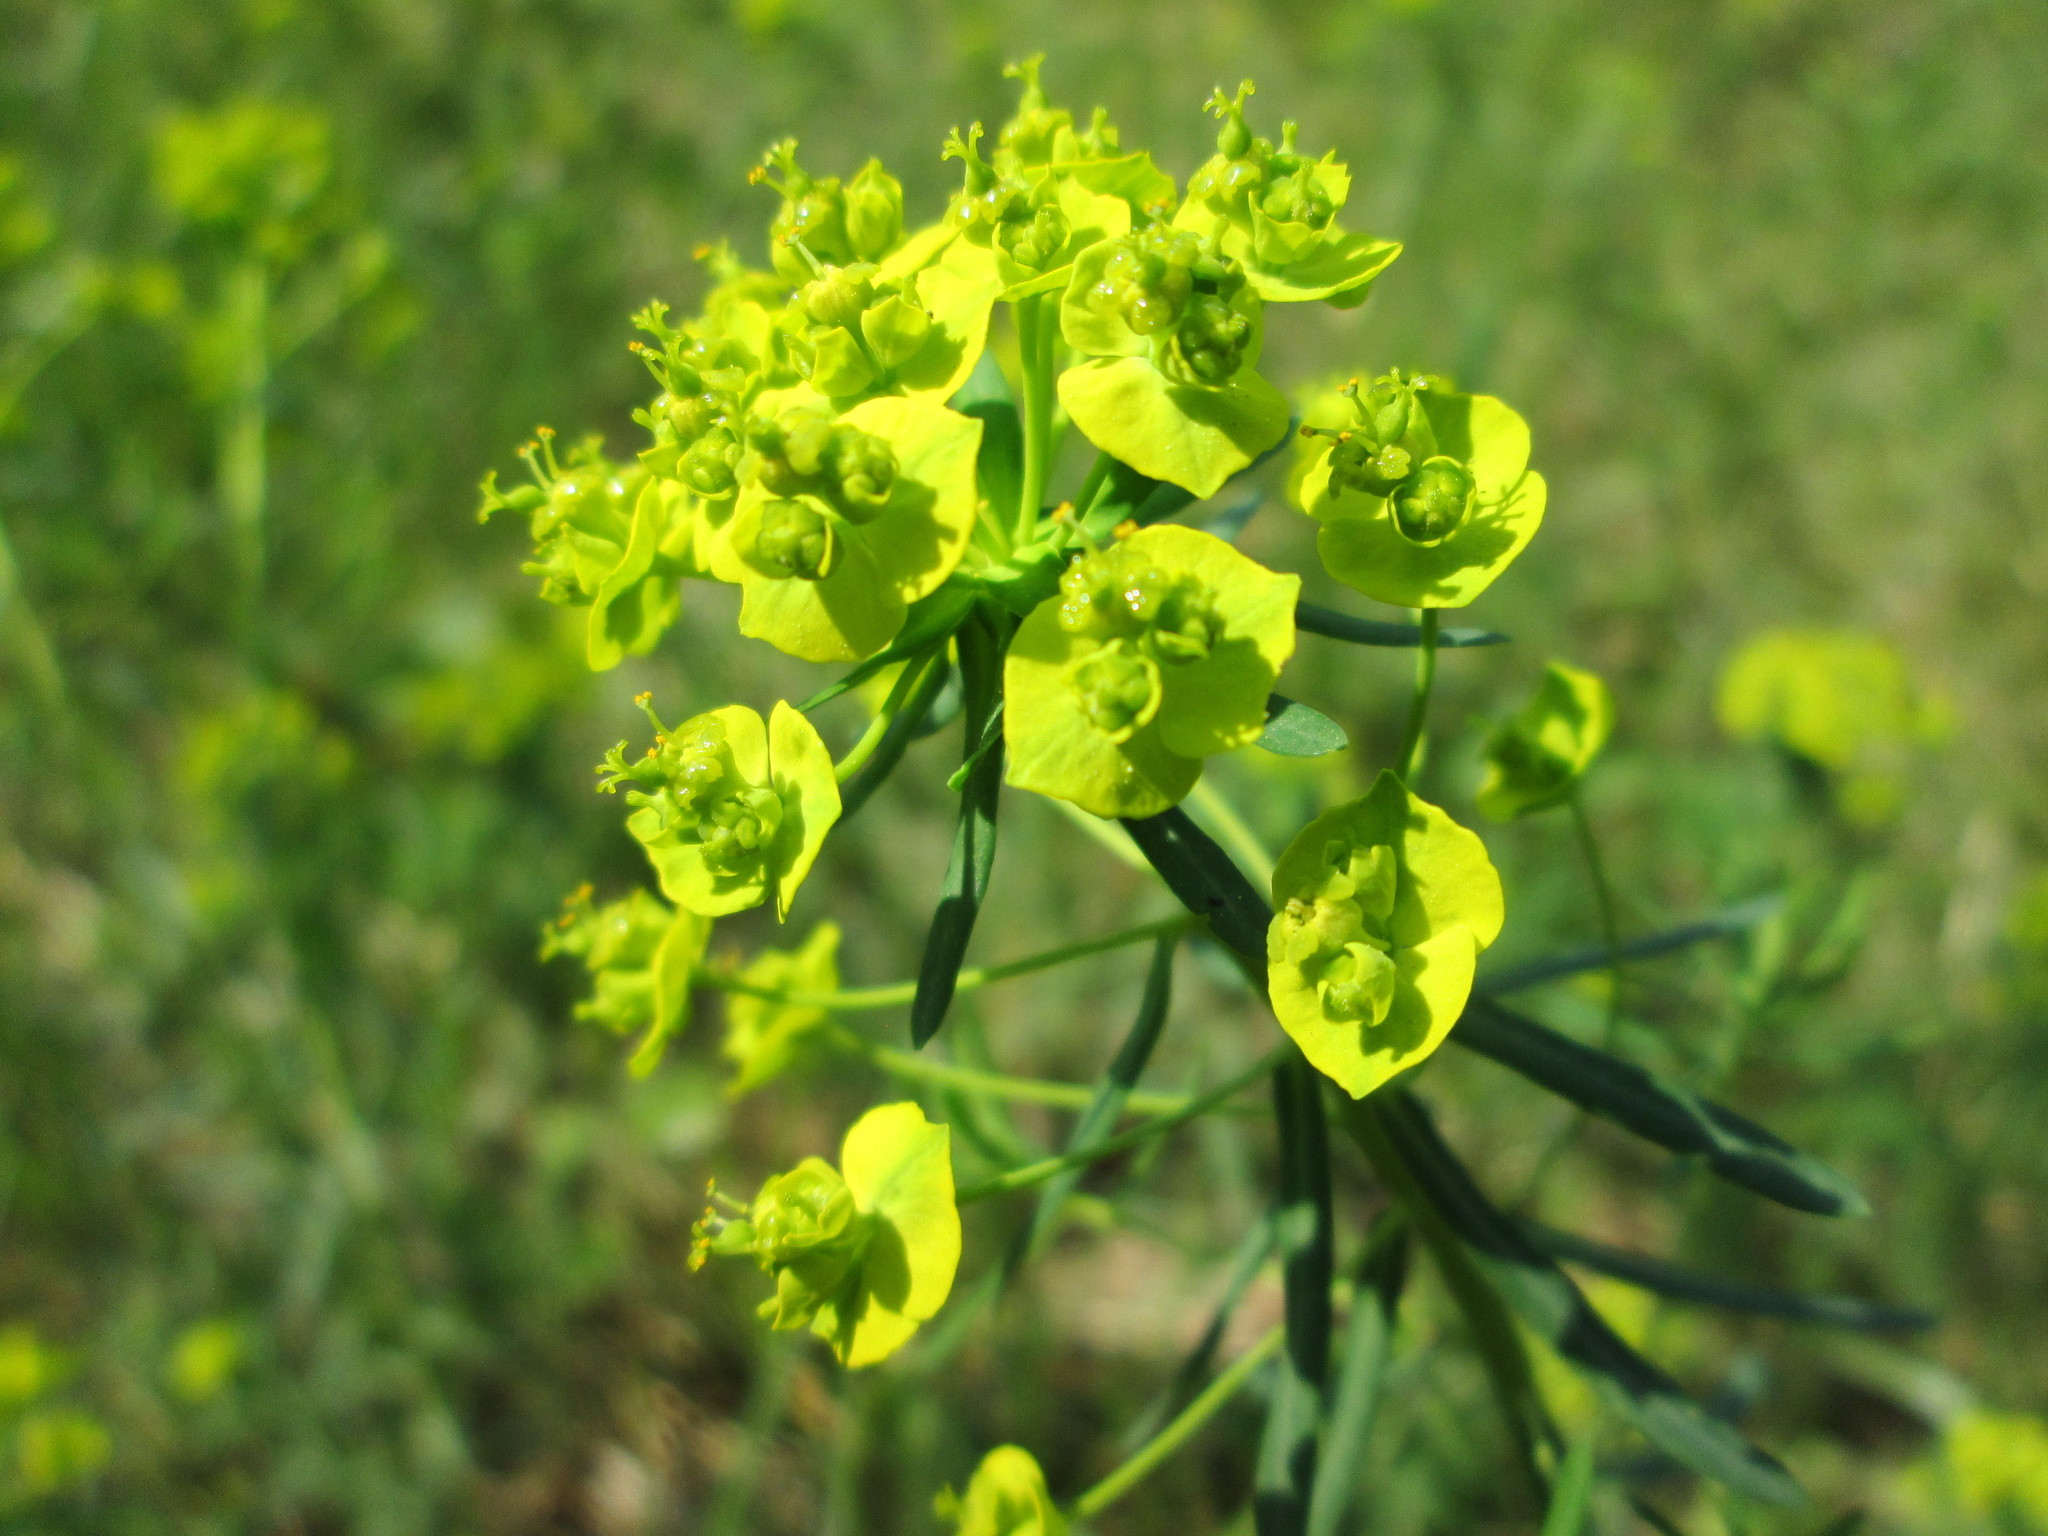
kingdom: Plantae
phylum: Tracheophyta
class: Magnoliopsida
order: Malpighiales
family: Euphorbiaceae
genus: Euphorbia
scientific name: Euphorbia cyparissias
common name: Cypress spurge
